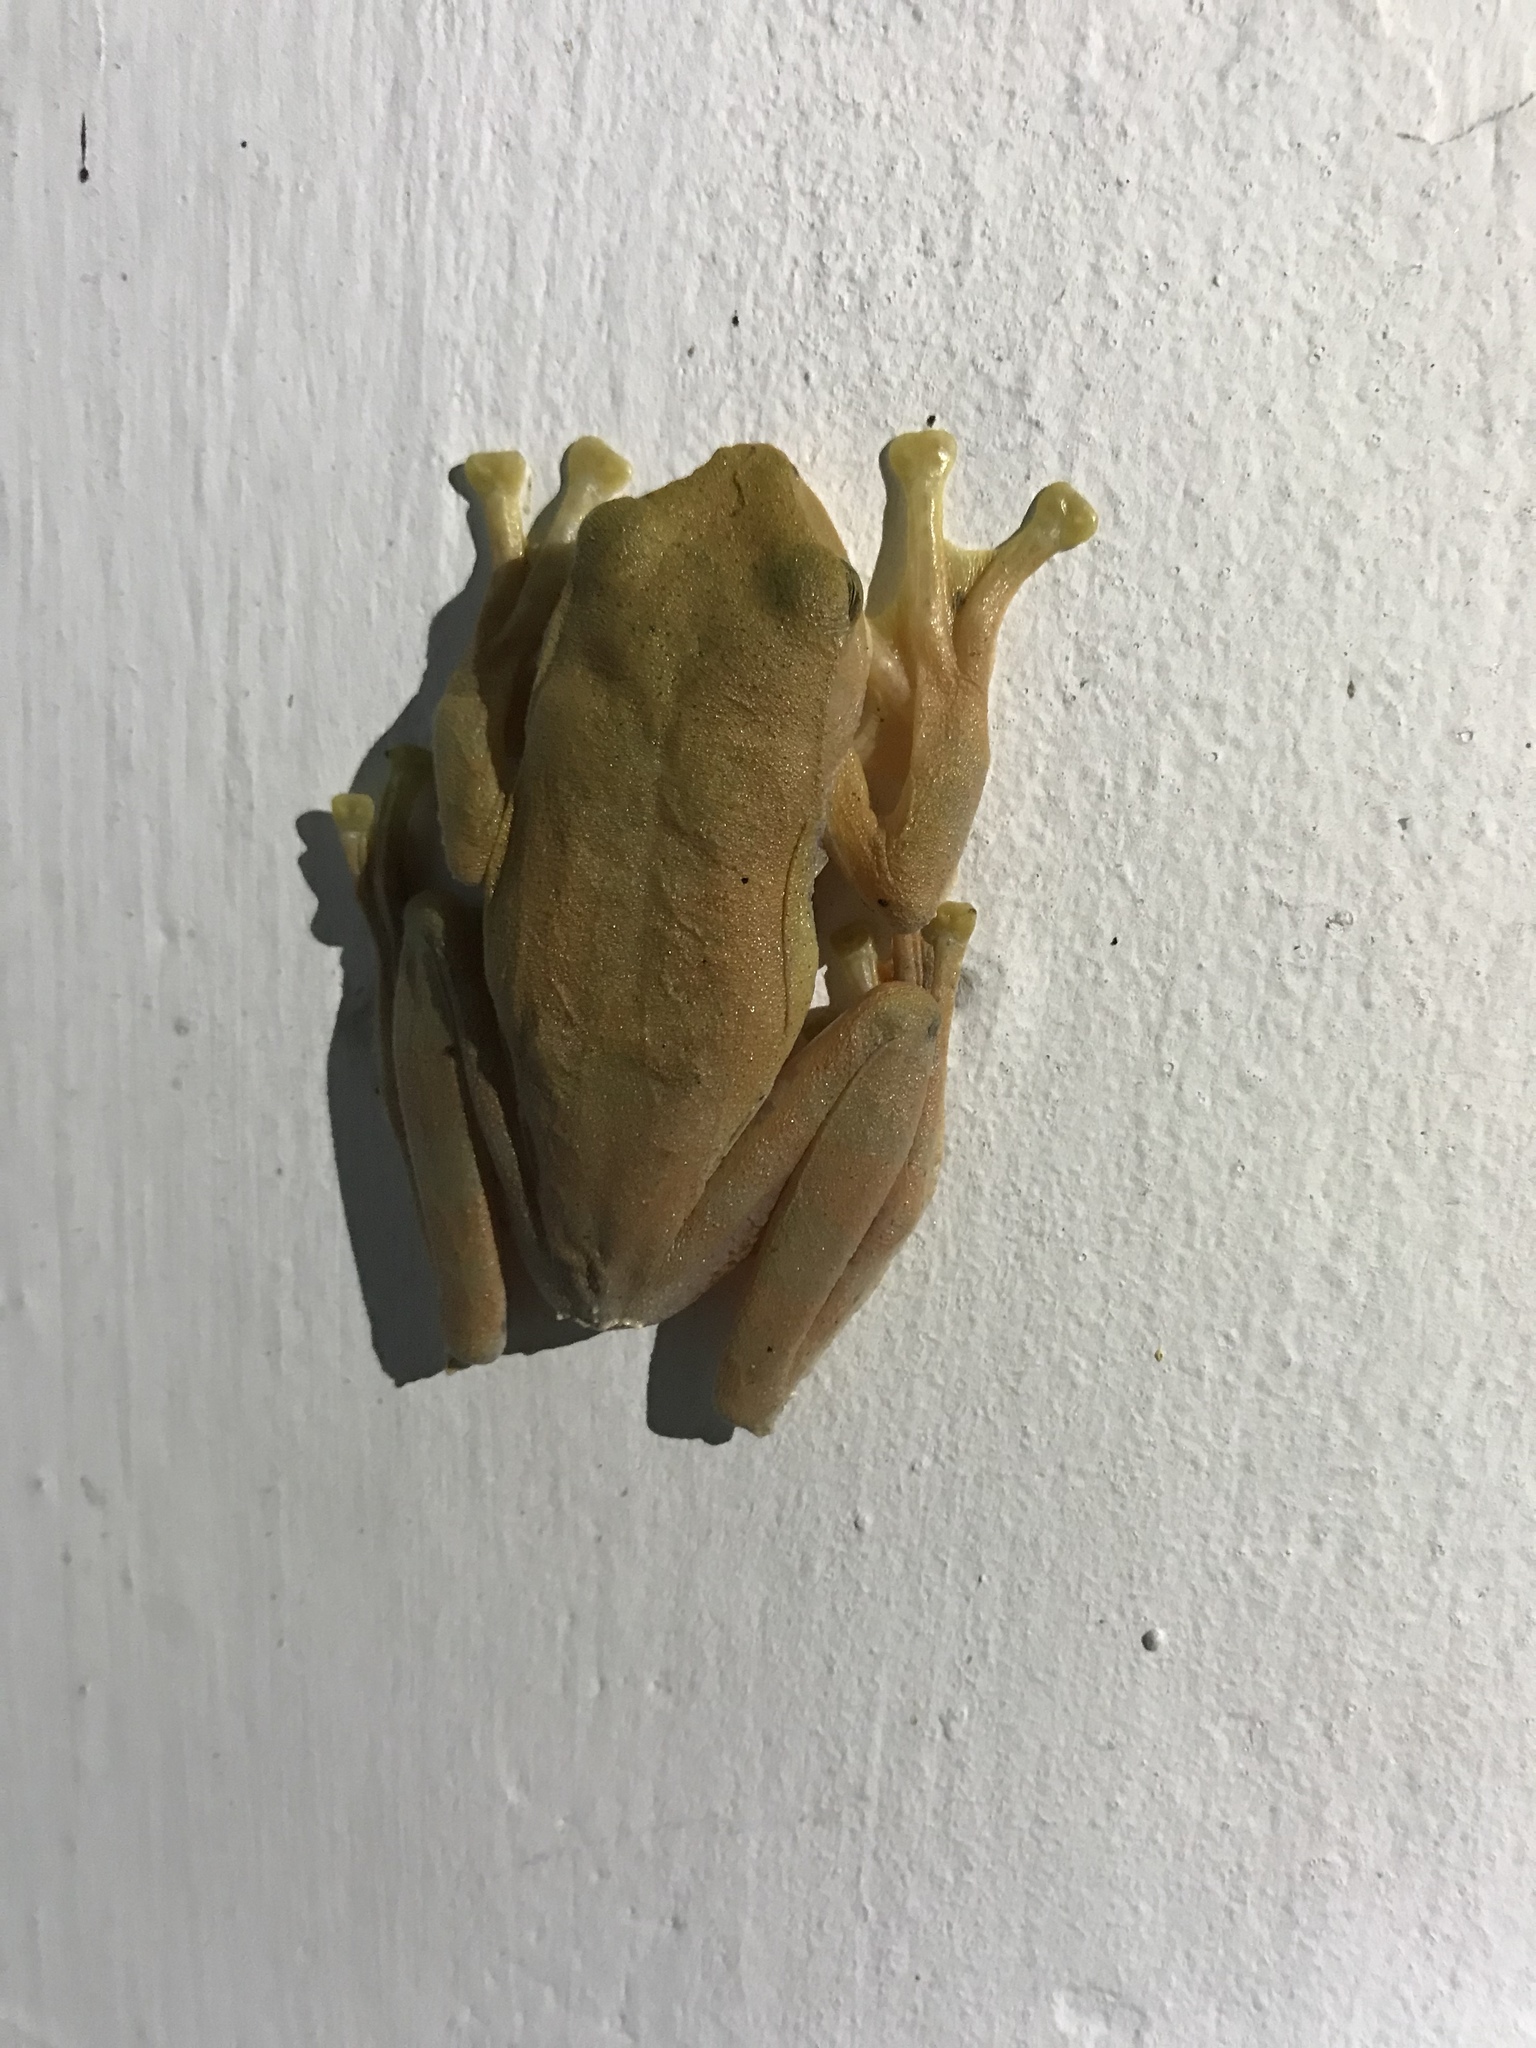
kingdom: Animalia
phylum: Chordata
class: Amphibia
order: Anura
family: Rhacophoridae
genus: Rhacophorus
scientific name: Rhacophorus margaritifer
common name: Java flying frog
